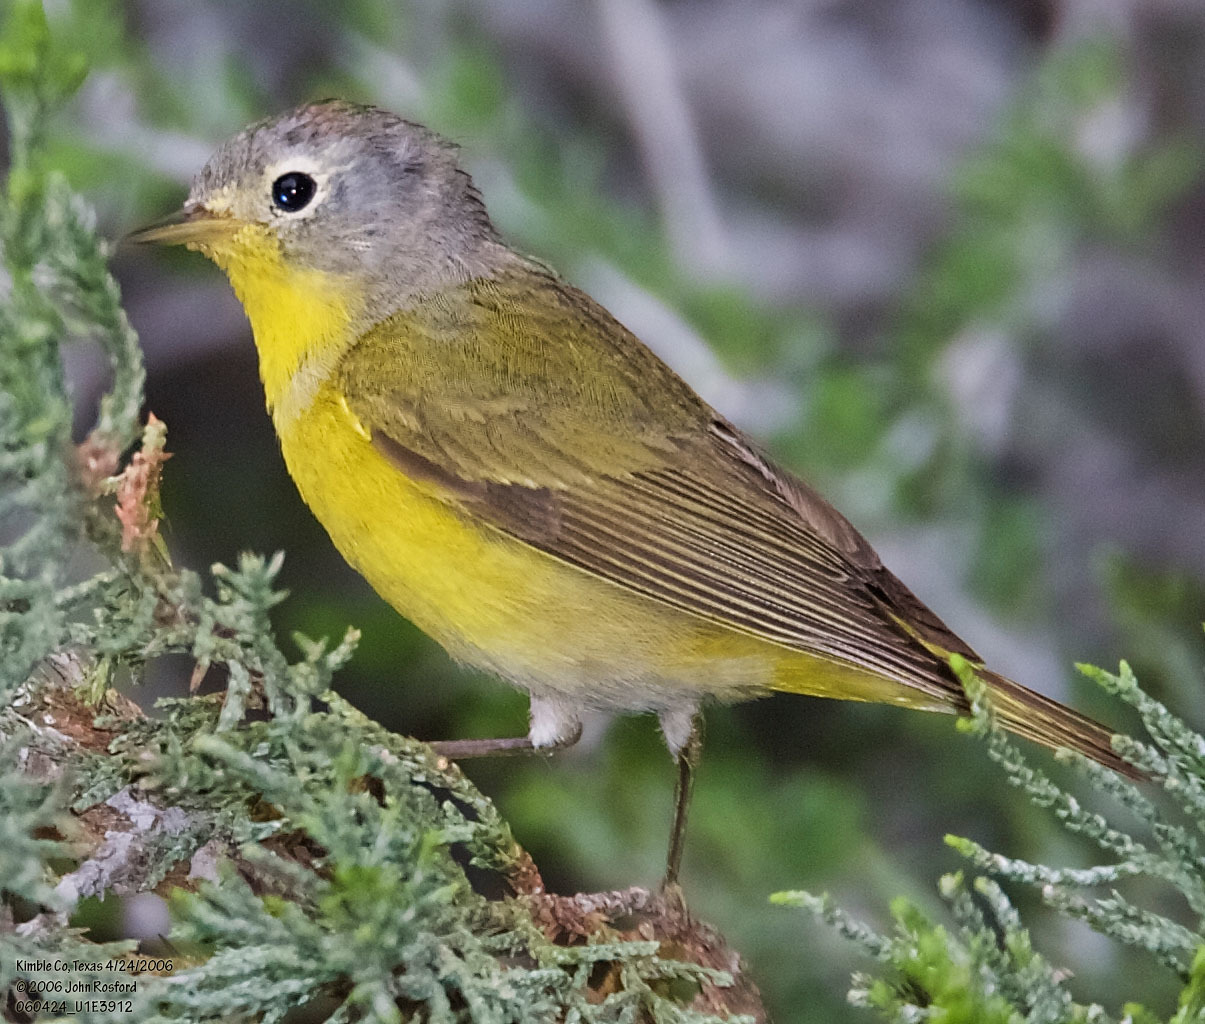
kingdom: Animalia
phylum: Chordata
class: Aves
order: Passeriformes
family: Parulidae
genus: Leiothlypis
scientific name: Leiothlypis ruficapilla
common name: Nashville warbler
